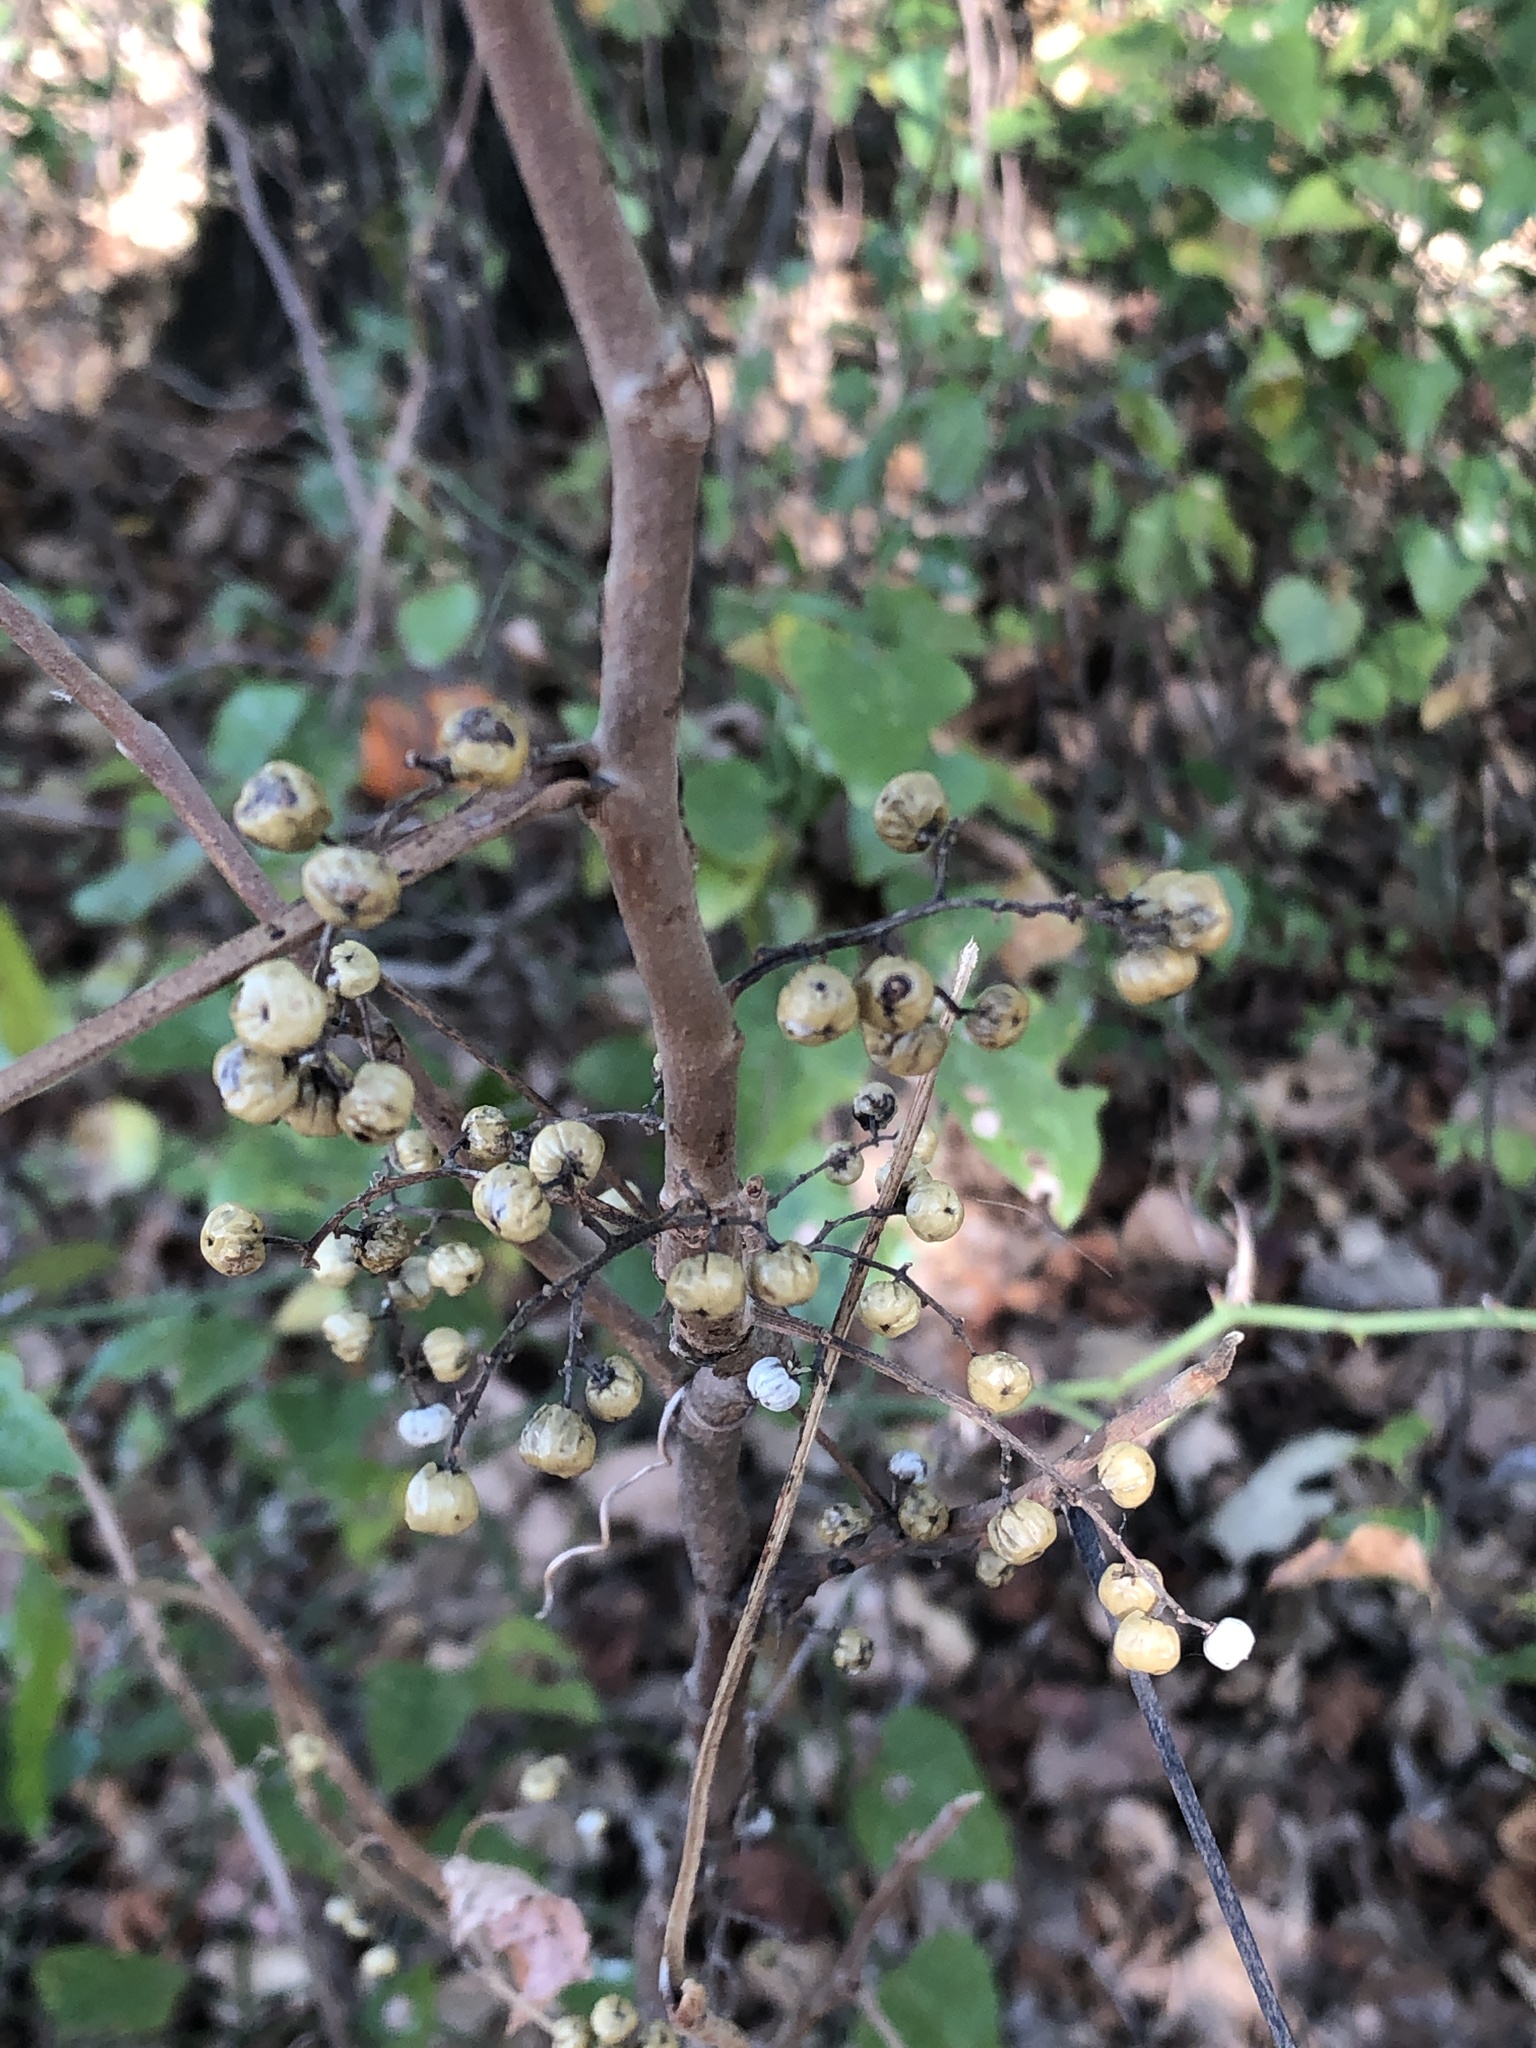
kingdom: Plantae
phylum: Tracheophyta
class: Magnoliopsida
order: Sapindales
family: Anacardiaceae
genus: Toxicodendron
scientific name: Toxicodendron radicans
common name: Poison ivy
